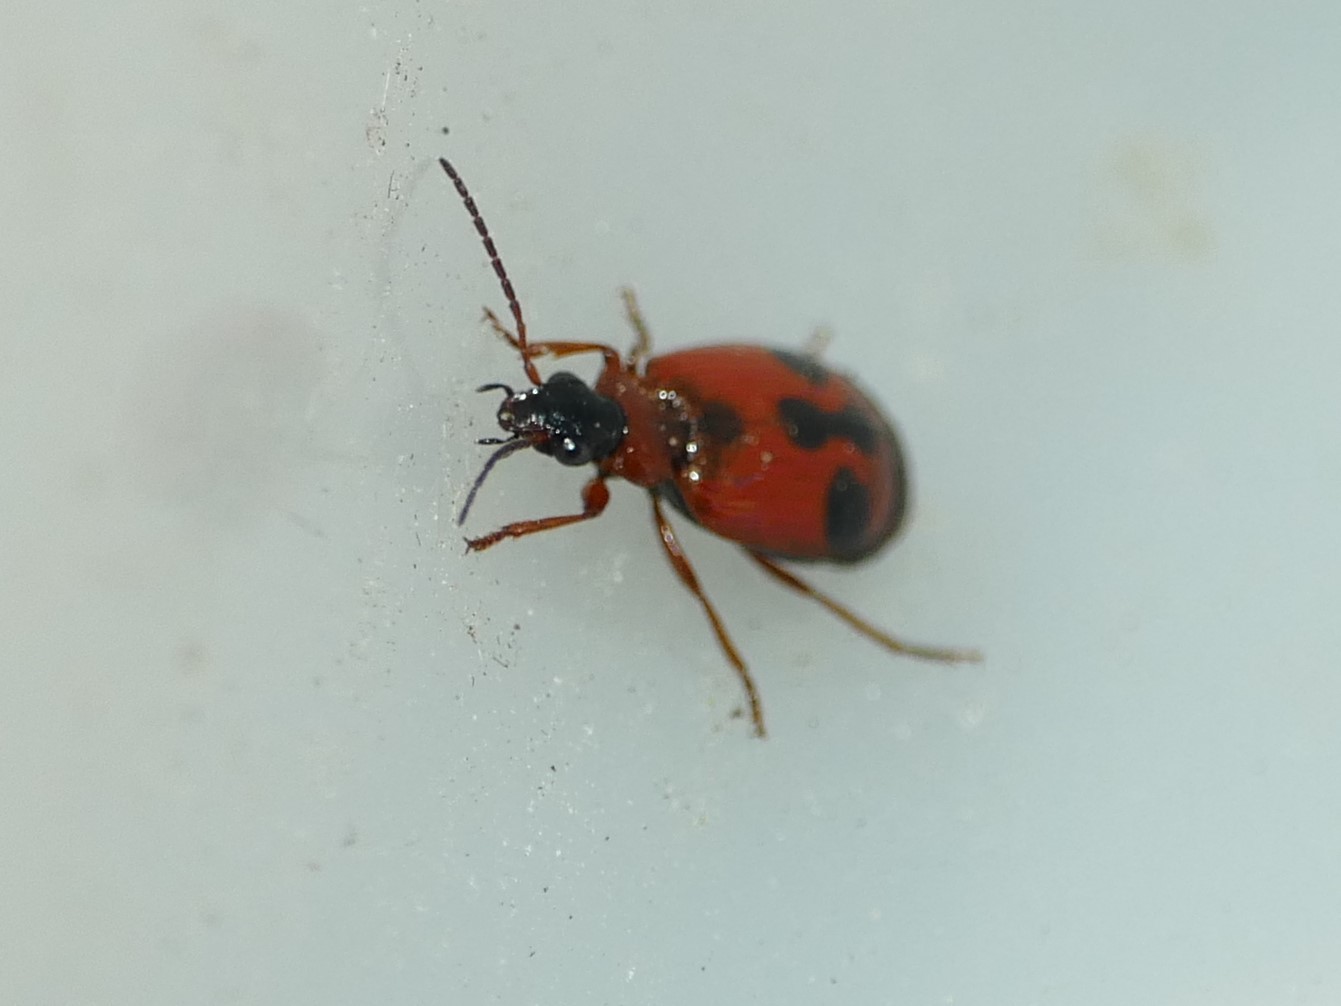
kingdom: Animalia
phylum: Arthropoda
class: Insecta
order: Coleoptera
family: Carabidae
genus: Lebia
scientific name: Lebia trimaculata
